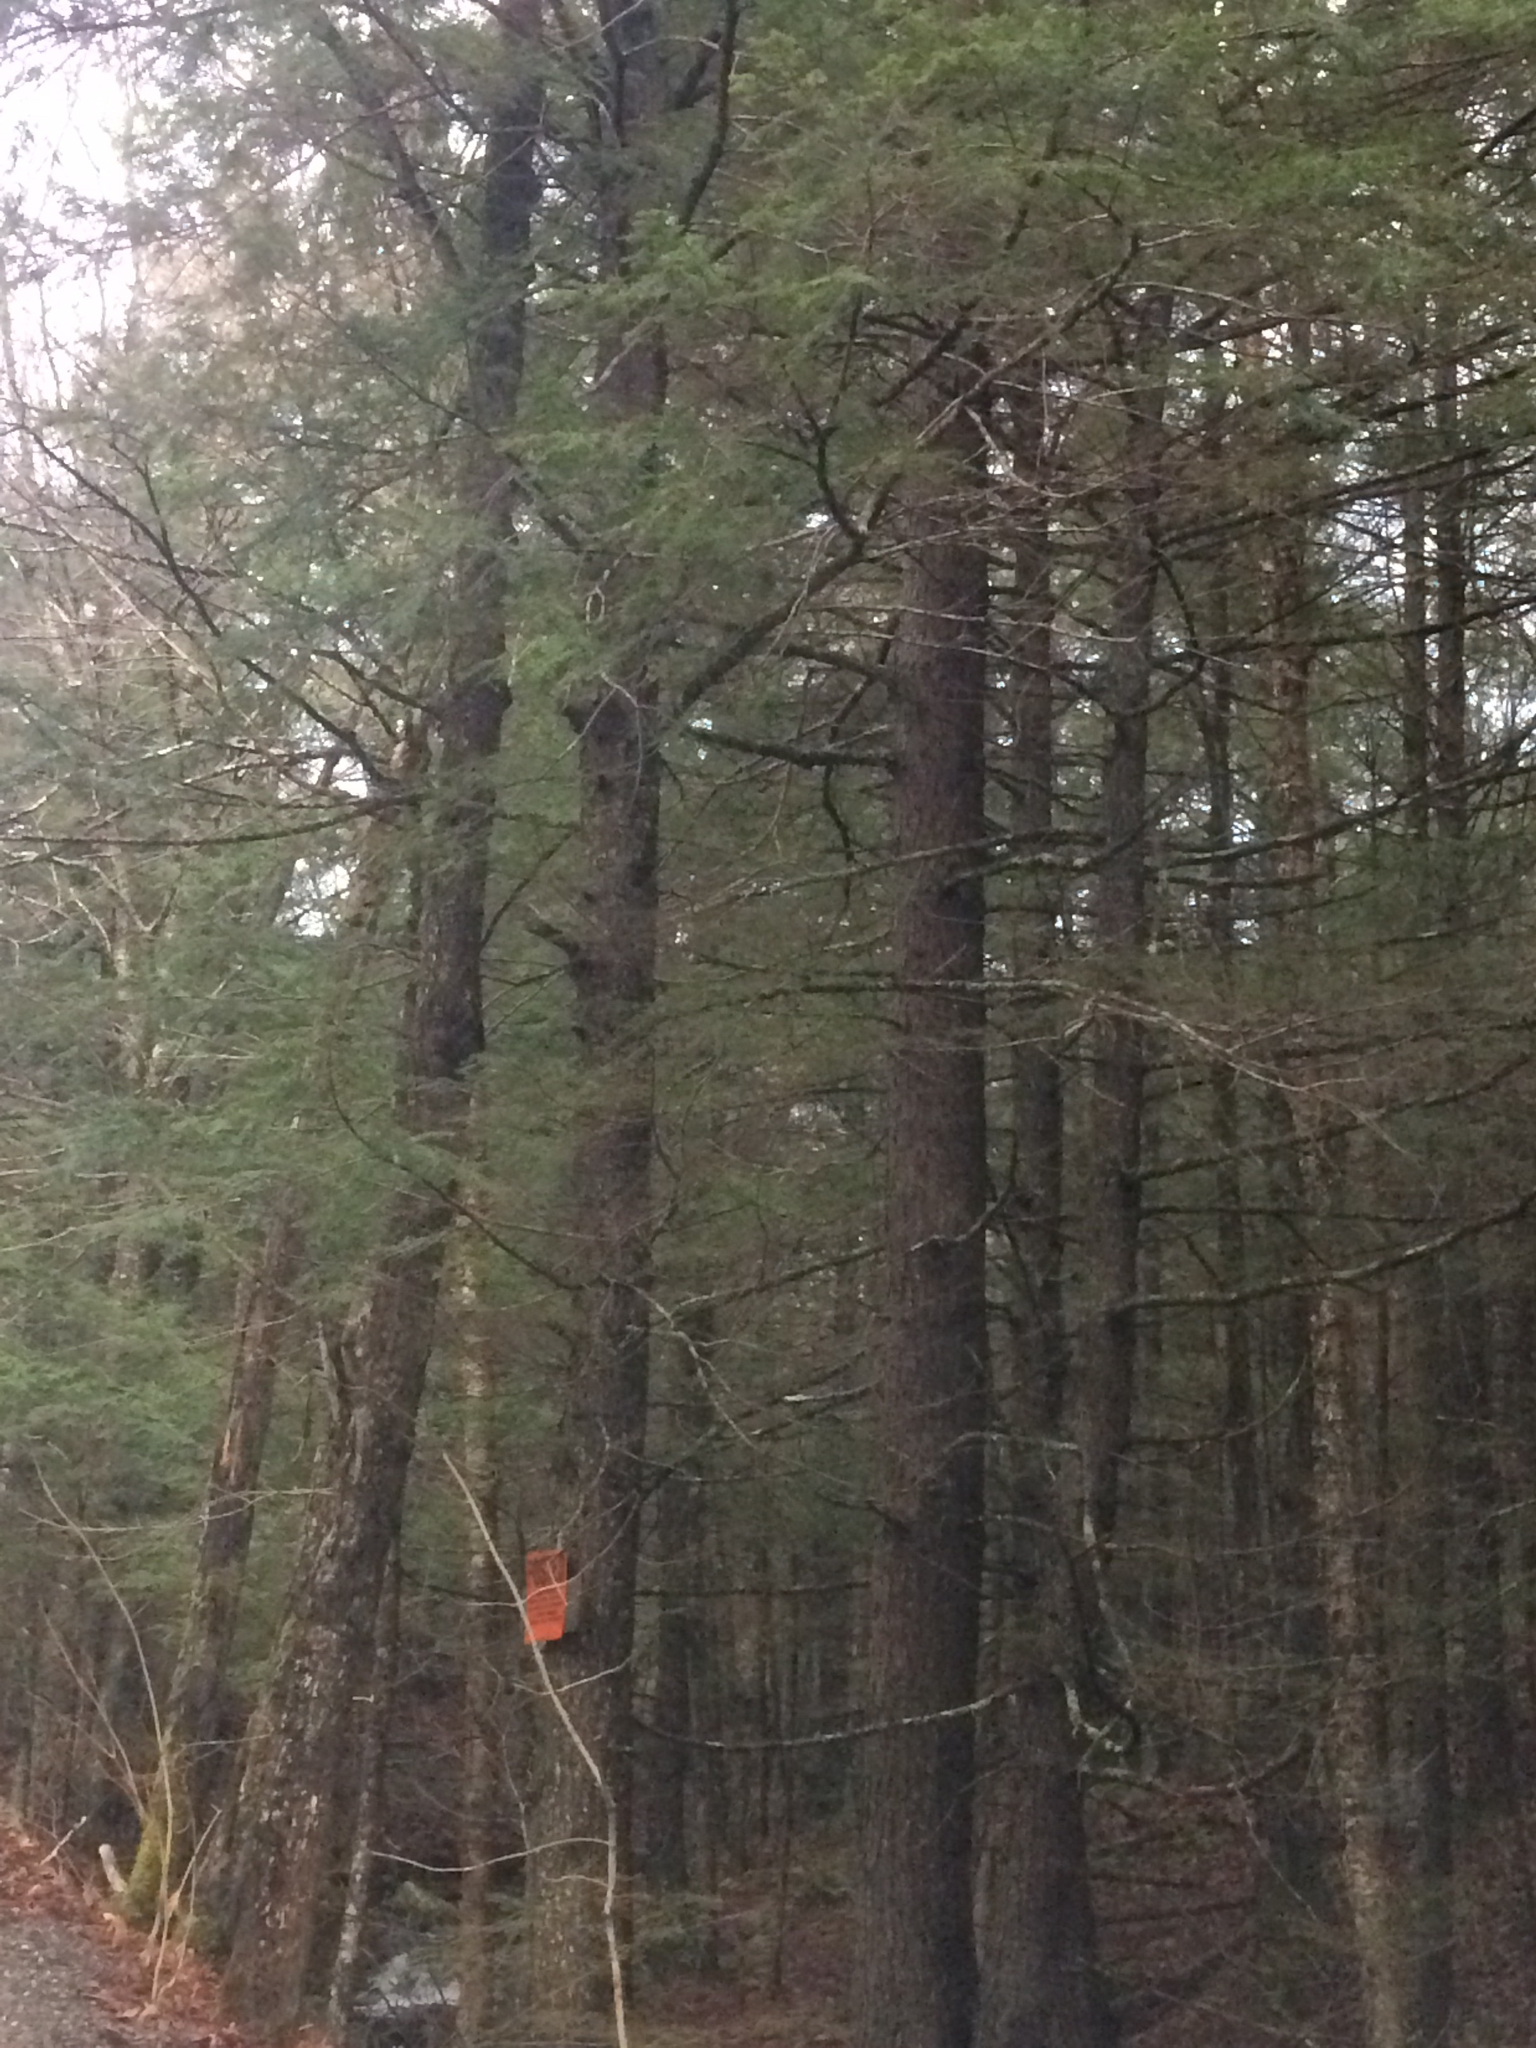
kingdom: Plantae
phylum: Tracheophyta
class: Pinopsida
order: Pinales
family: Pinaceae
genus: Tsuga
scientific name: Tsuga canadensis
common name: Eastern hemlock
